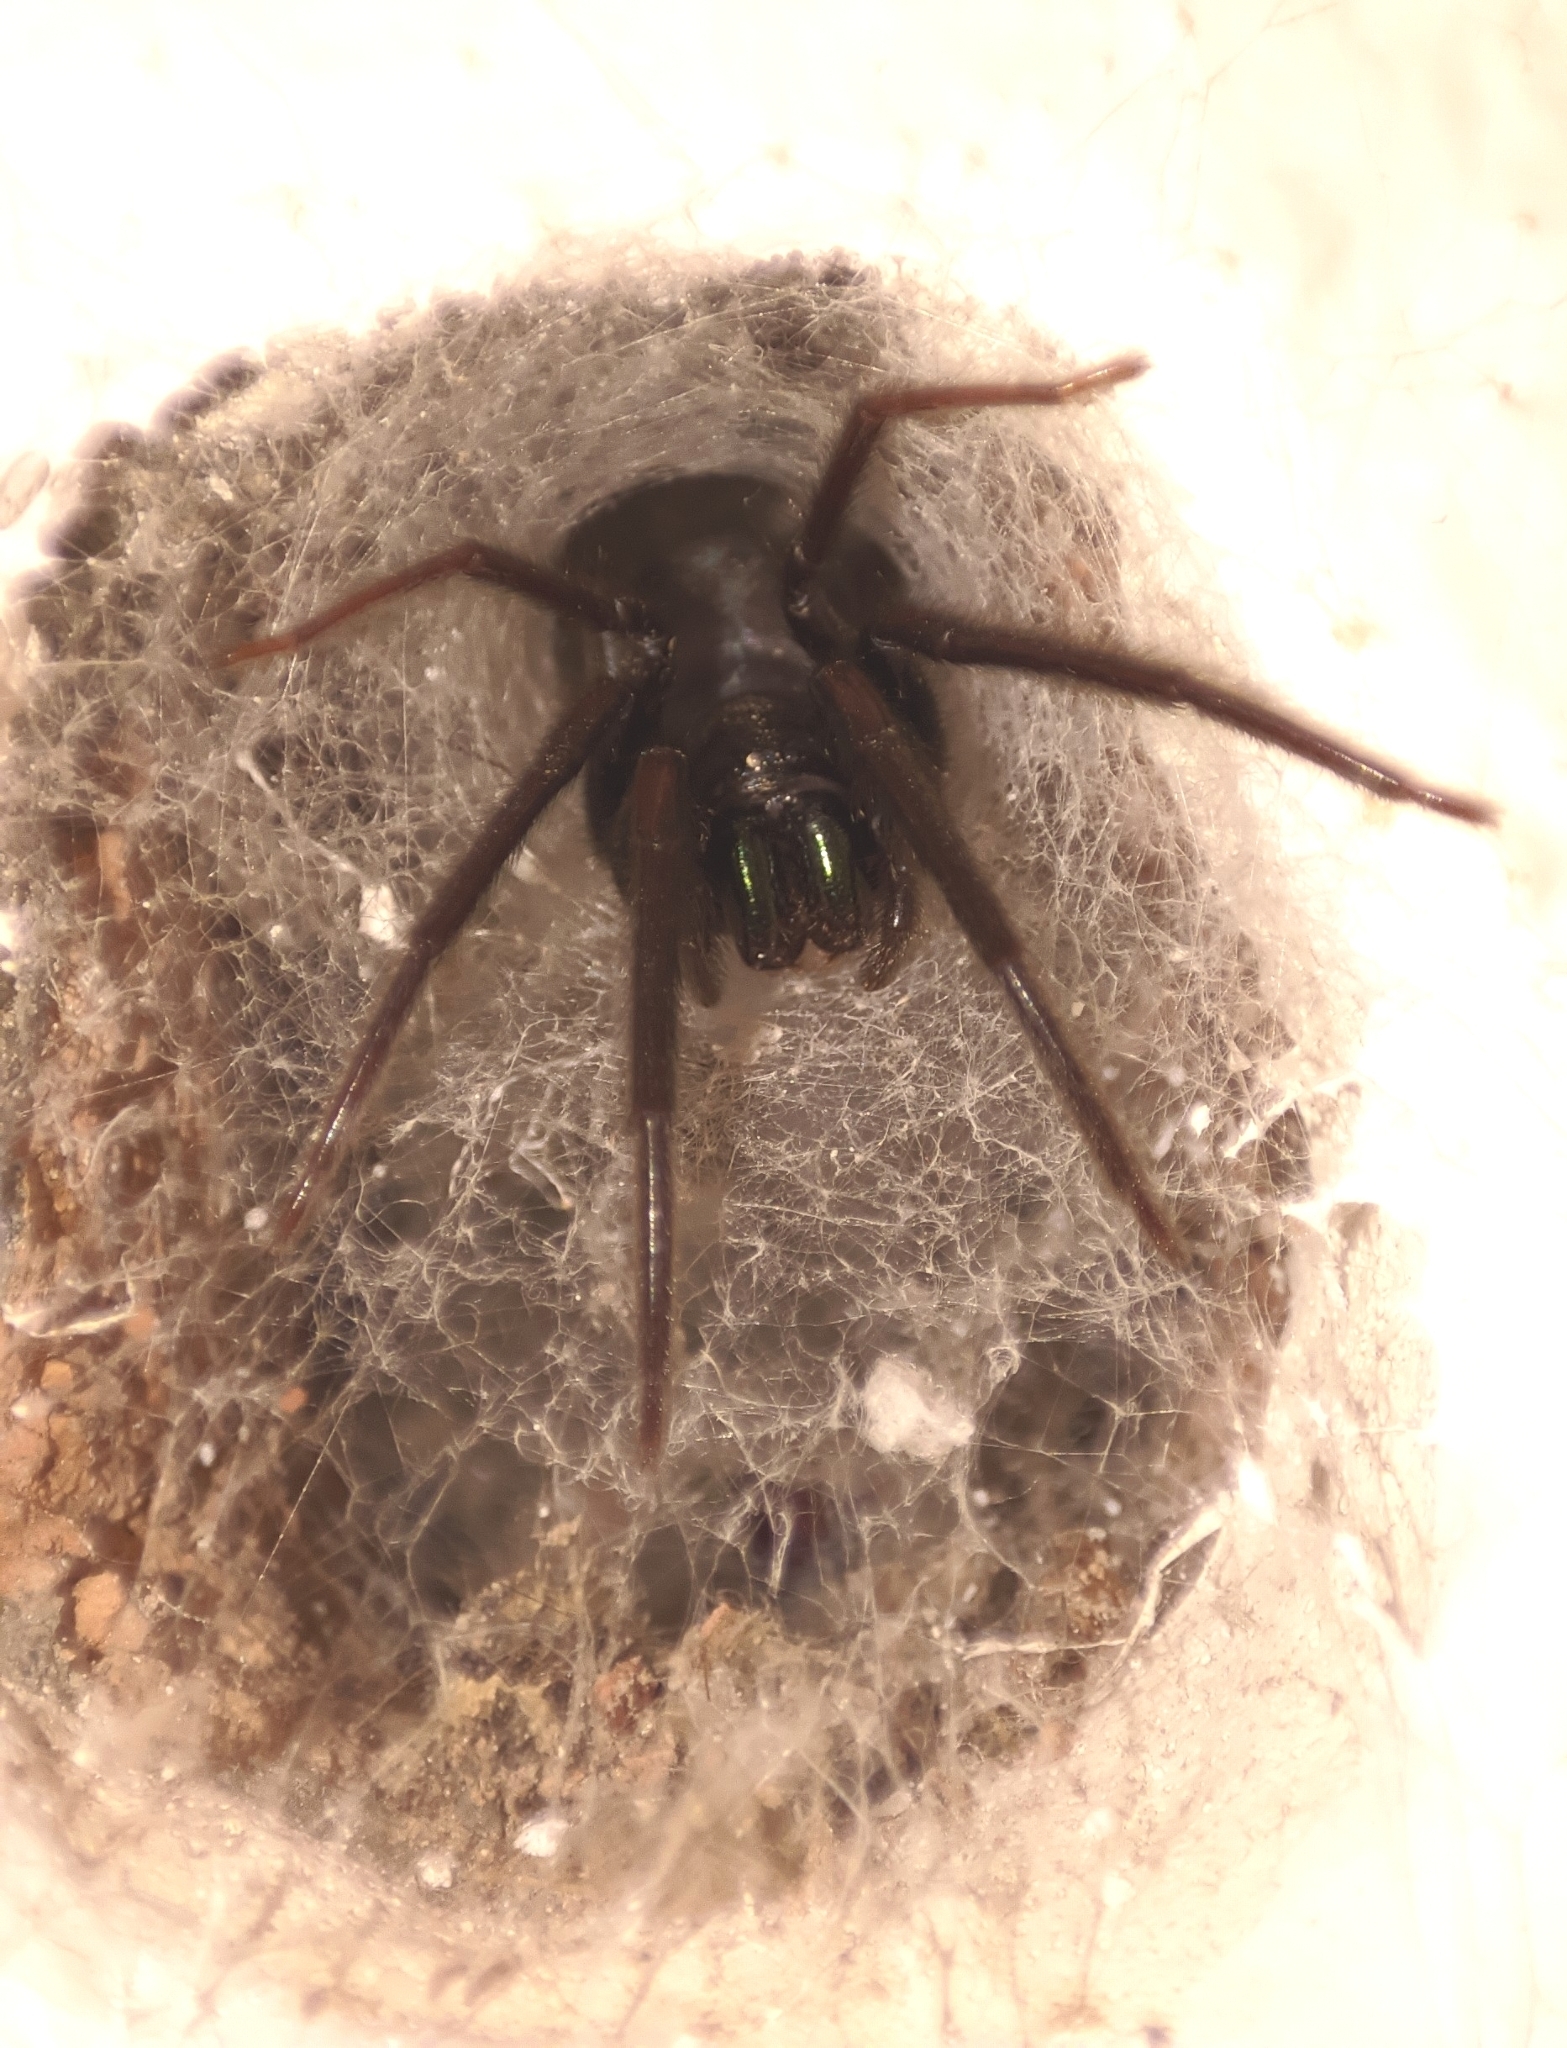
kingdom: Animalia
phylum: Arthropoda
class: Arachnida
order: Araneae
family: Segestriidae
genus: Segestria
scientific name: Segestria florentina
